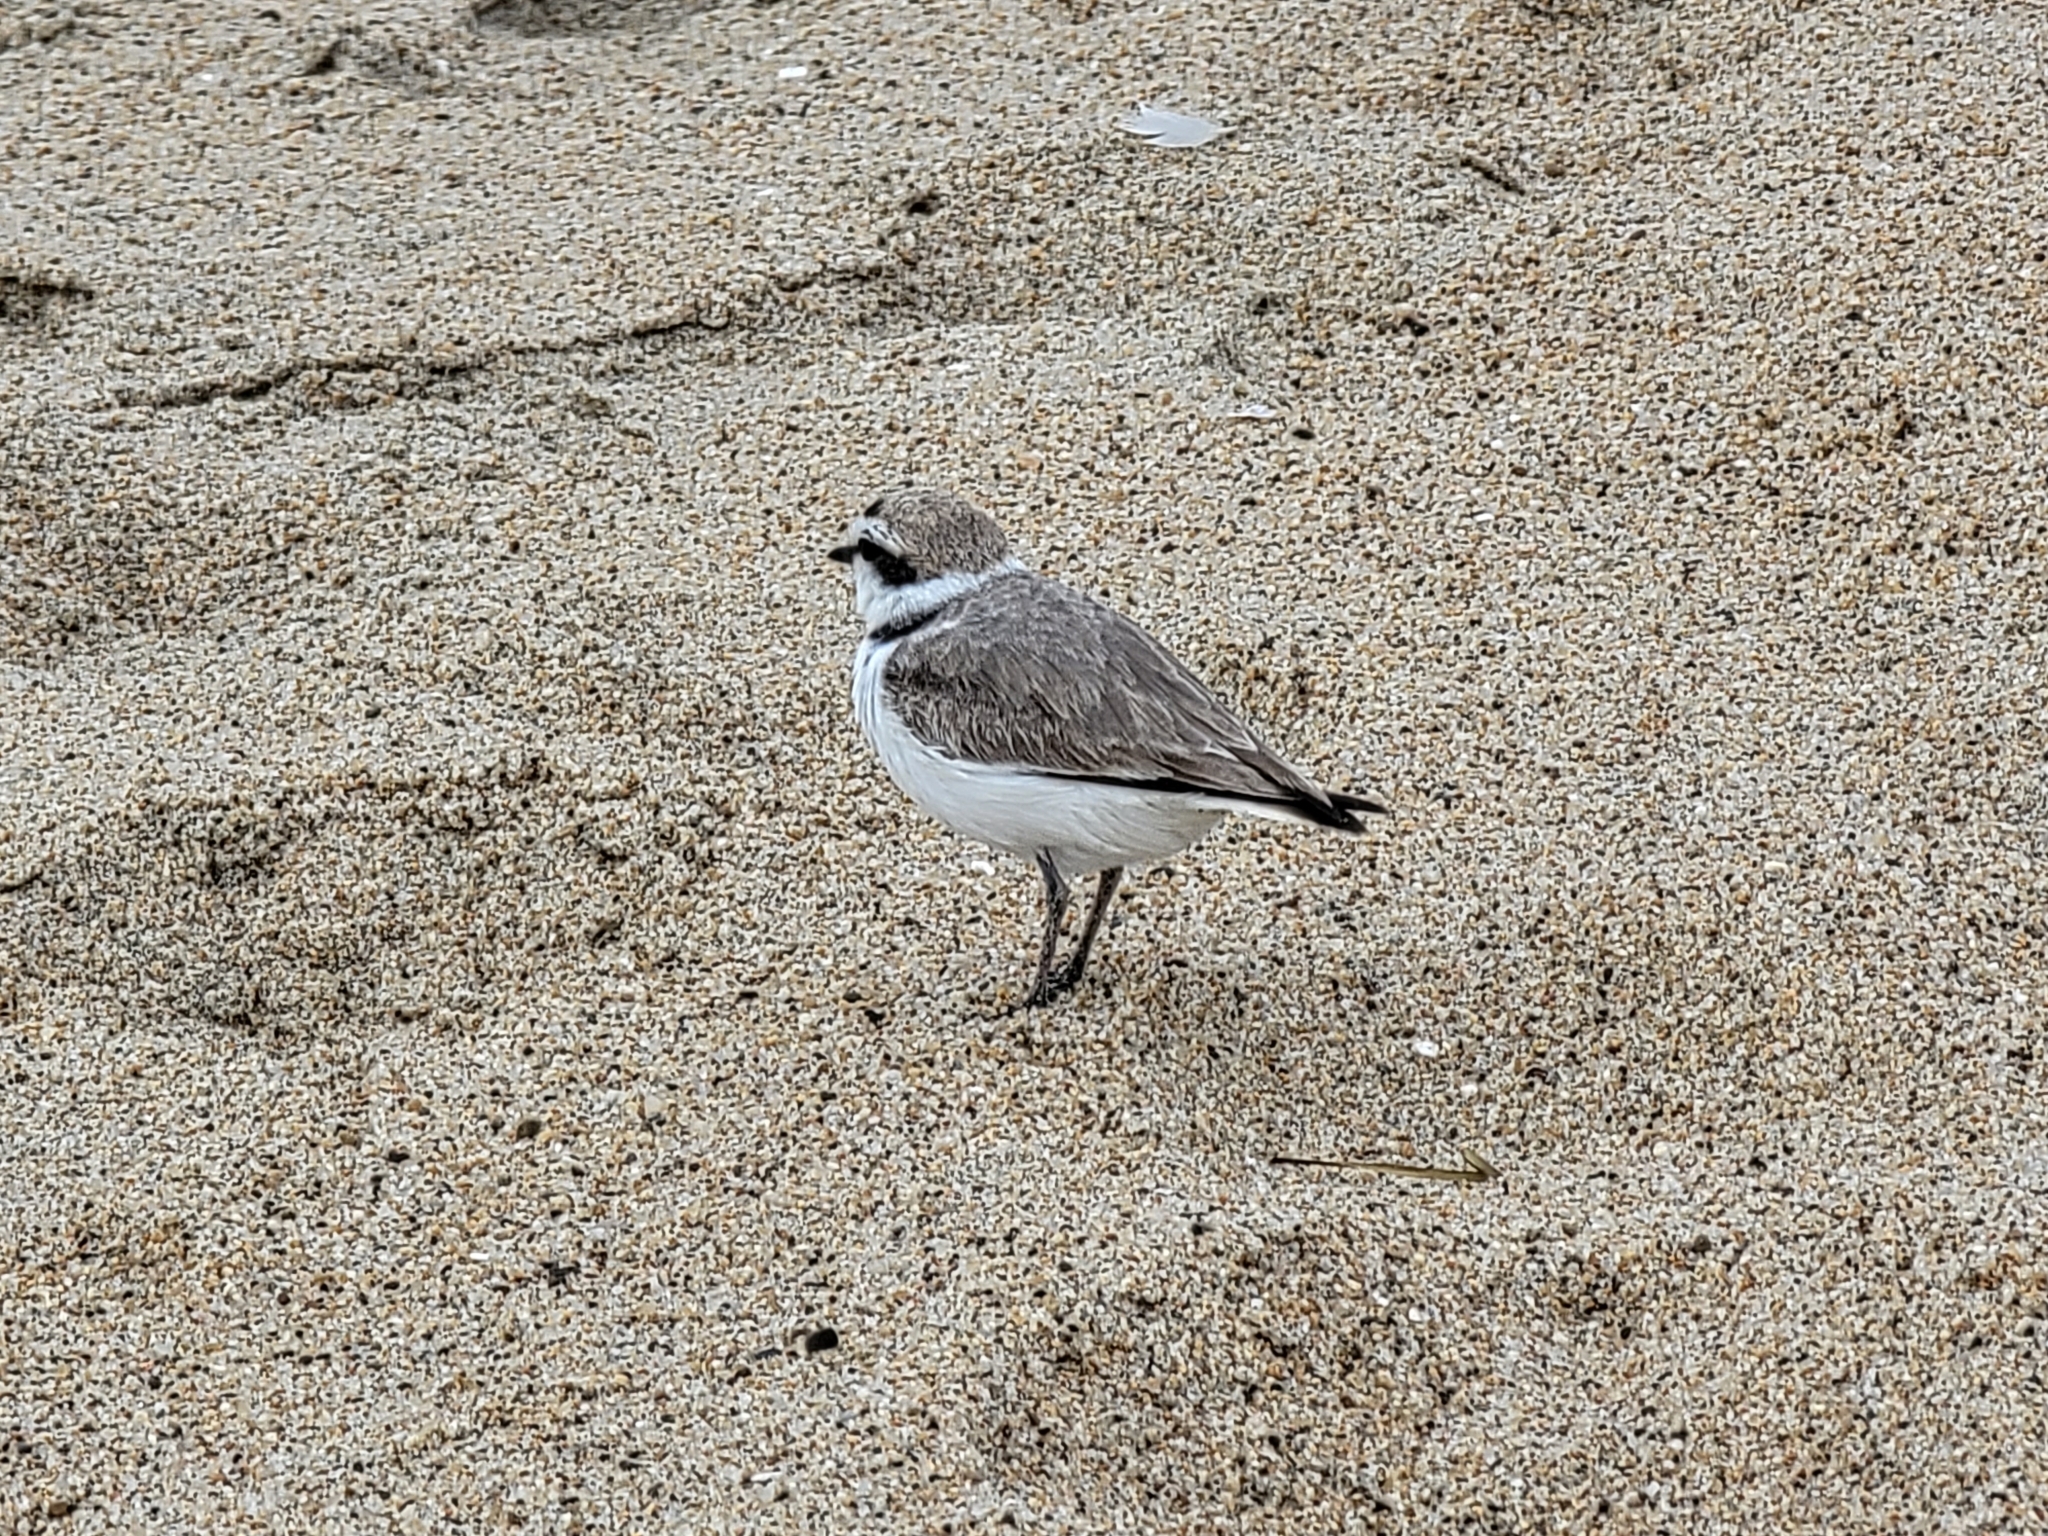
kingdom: Animalia
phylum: Chordata
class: Aves
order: Charadriiformes
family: Charadriidae
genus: Anarhynchus
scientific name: Anarhynchus
